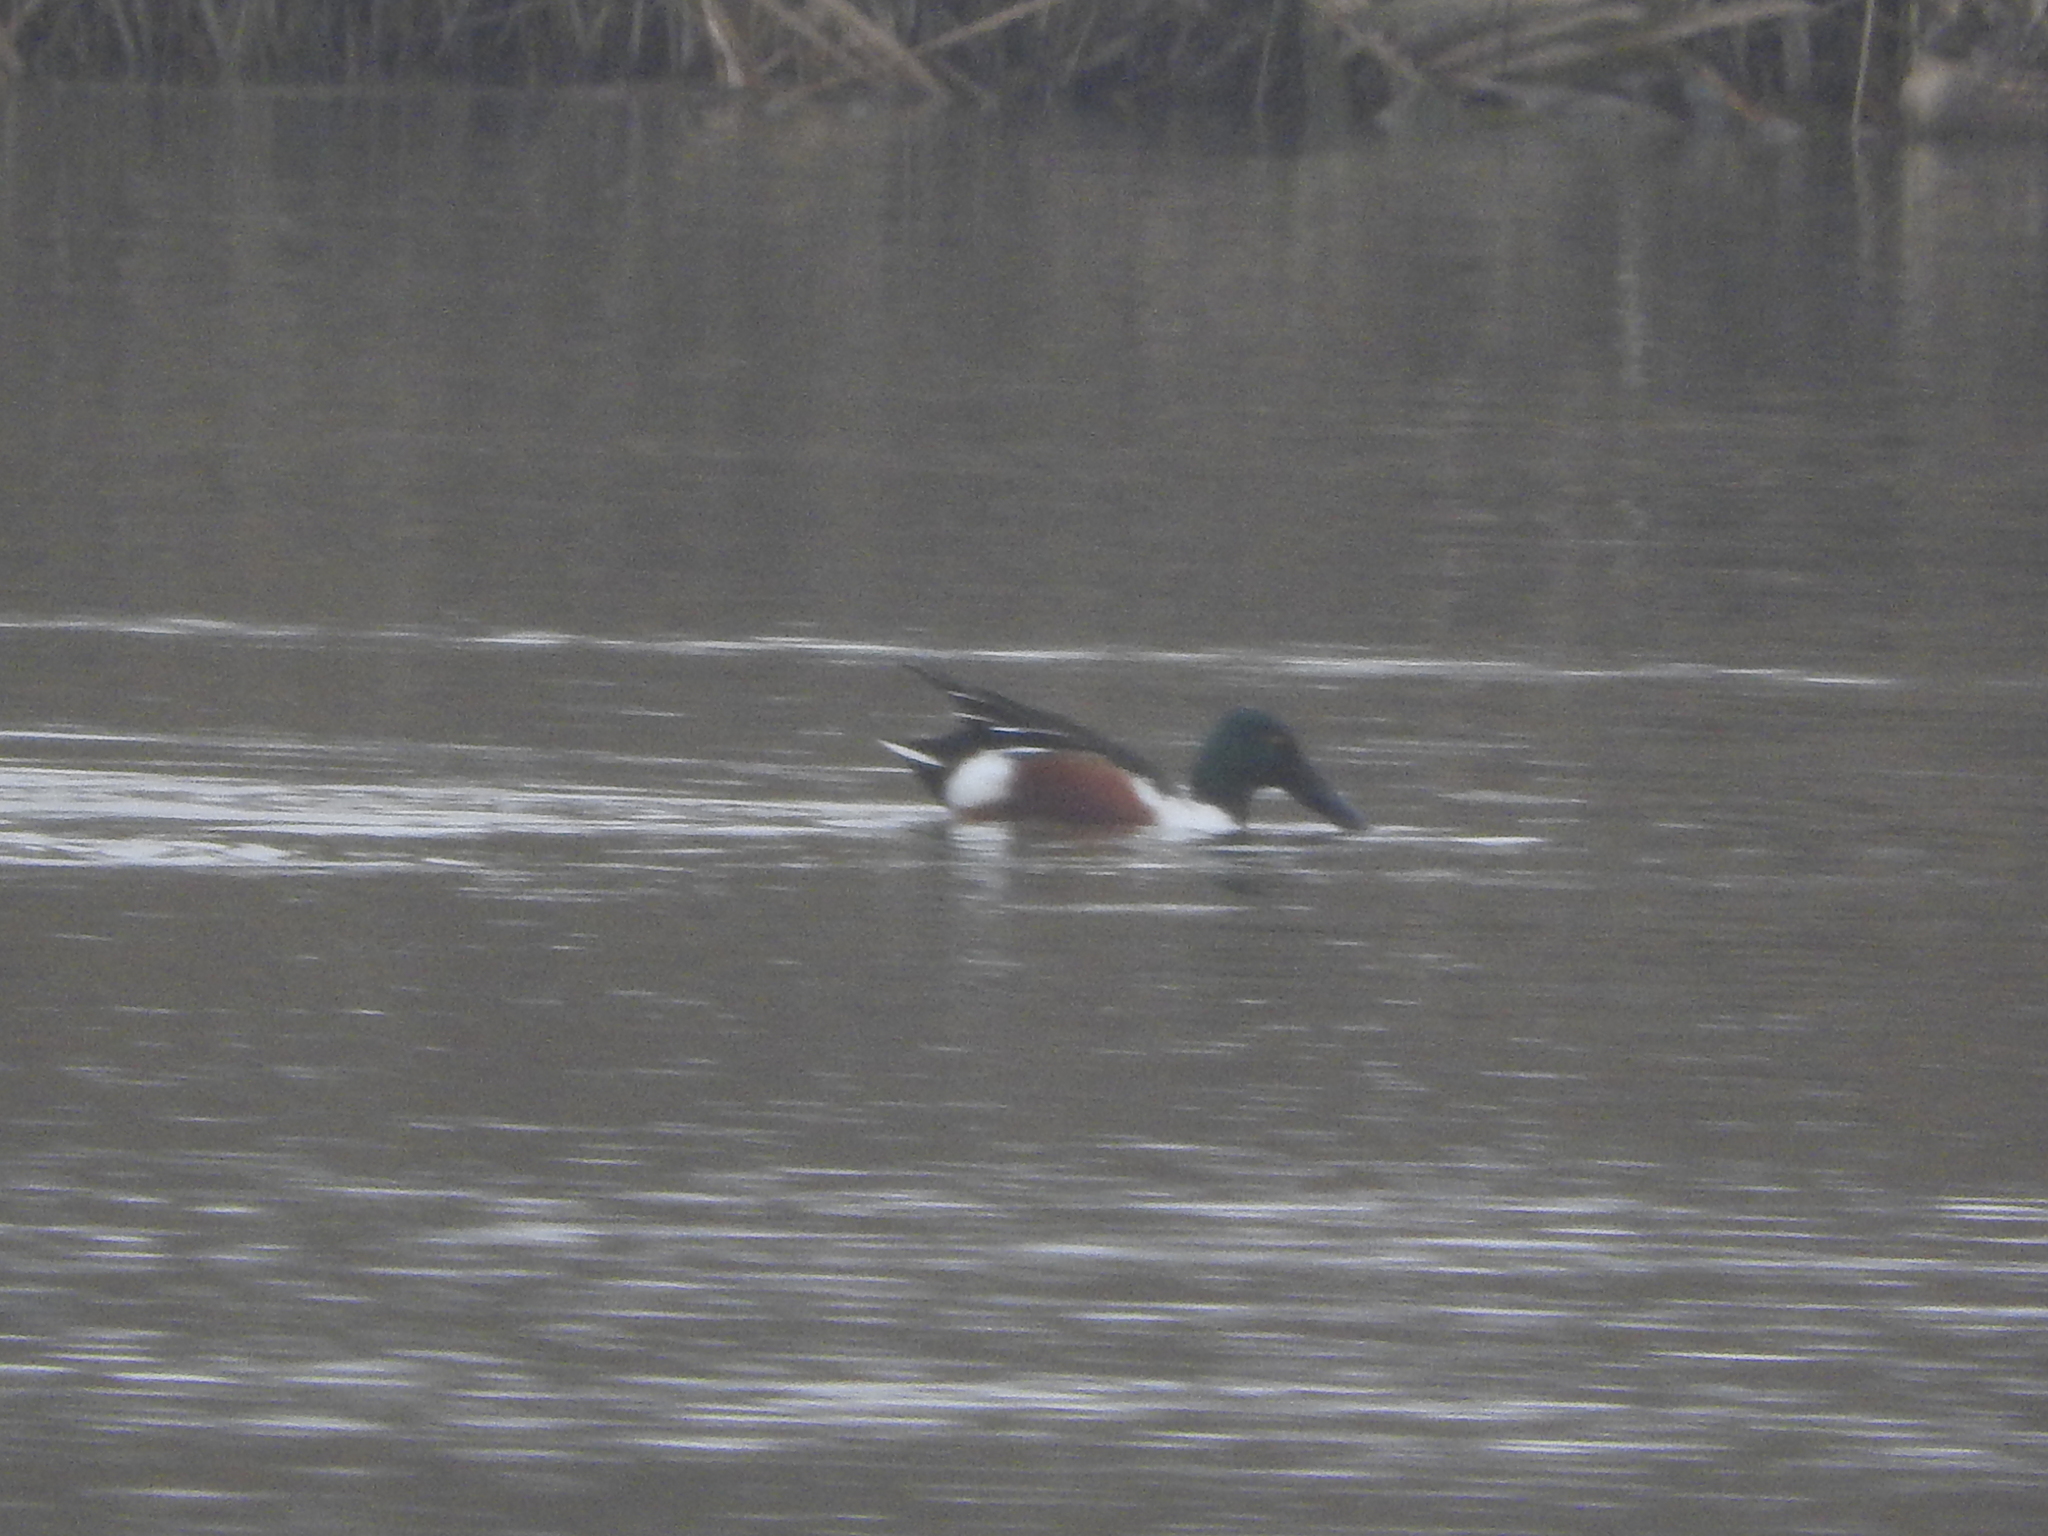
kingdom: Animalia
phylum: Chordata
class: Aves
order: Anseriformes
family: Anatidae
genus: Spatula
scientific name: Spatula clypeata
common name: Northern shoveler
